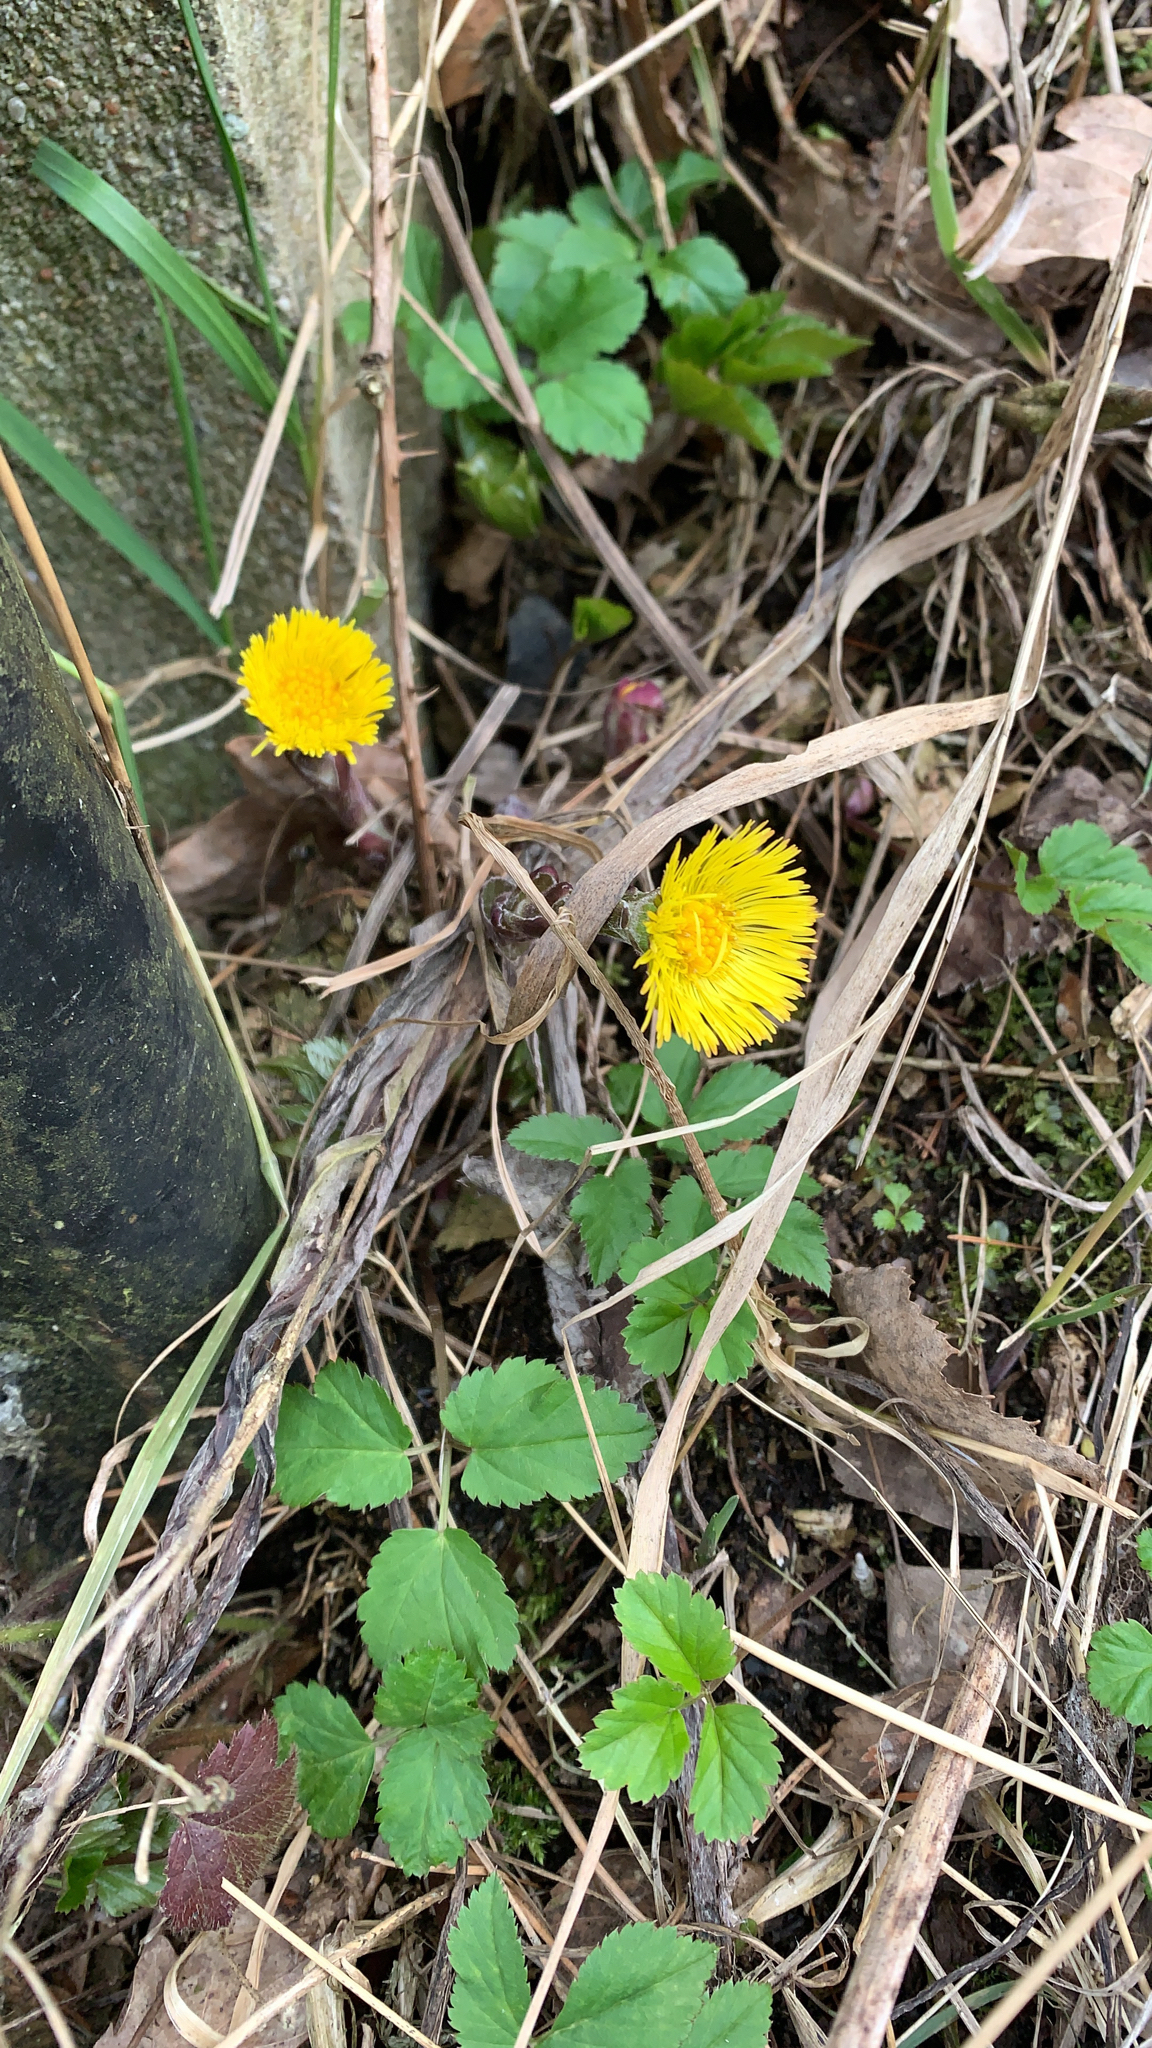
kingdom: Plantae
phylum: Tracheophyta
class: Magnoliopsida
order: Asterales
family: Asteraceae
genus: Tussilago
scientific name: Tussilago farfara
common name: Coltsfoot
